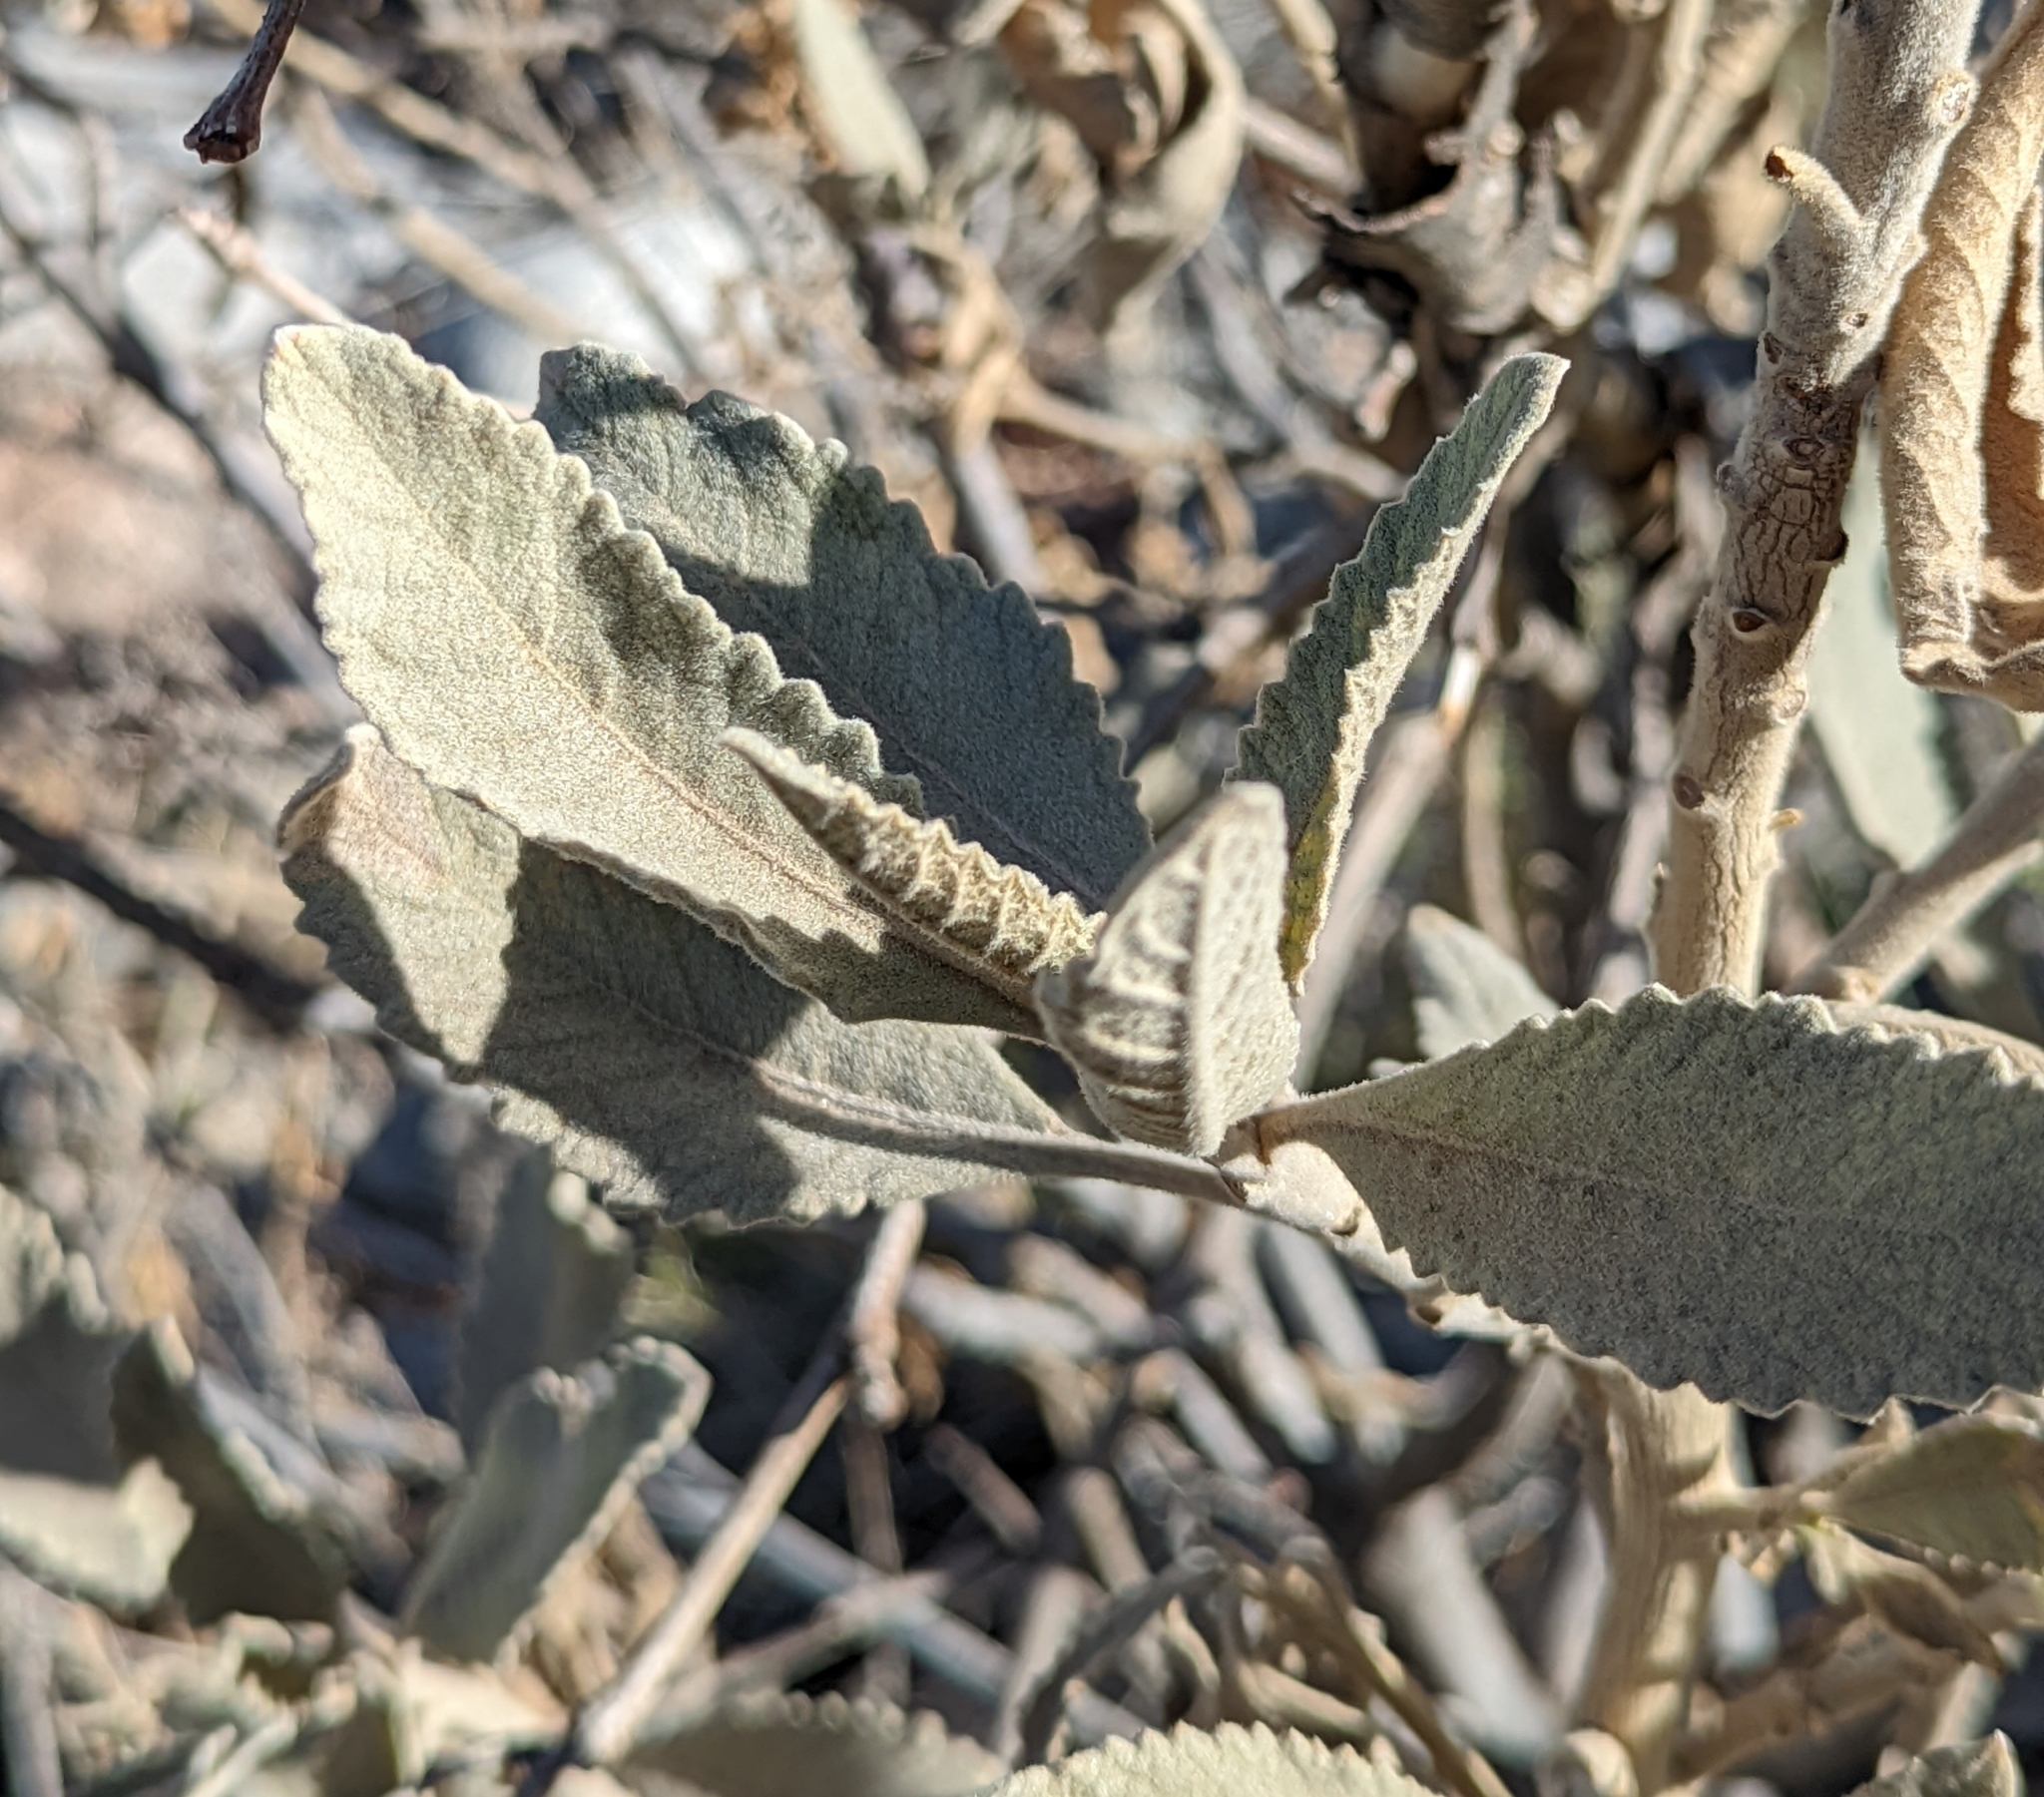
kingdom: Plantae
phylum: Tracheophyta
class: Magnoliopsida
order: Boraginales
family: Namaceae
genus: Eriodictyon
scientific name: Eriodictyon crassifolium
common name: Thick-leaf yerba-santa
